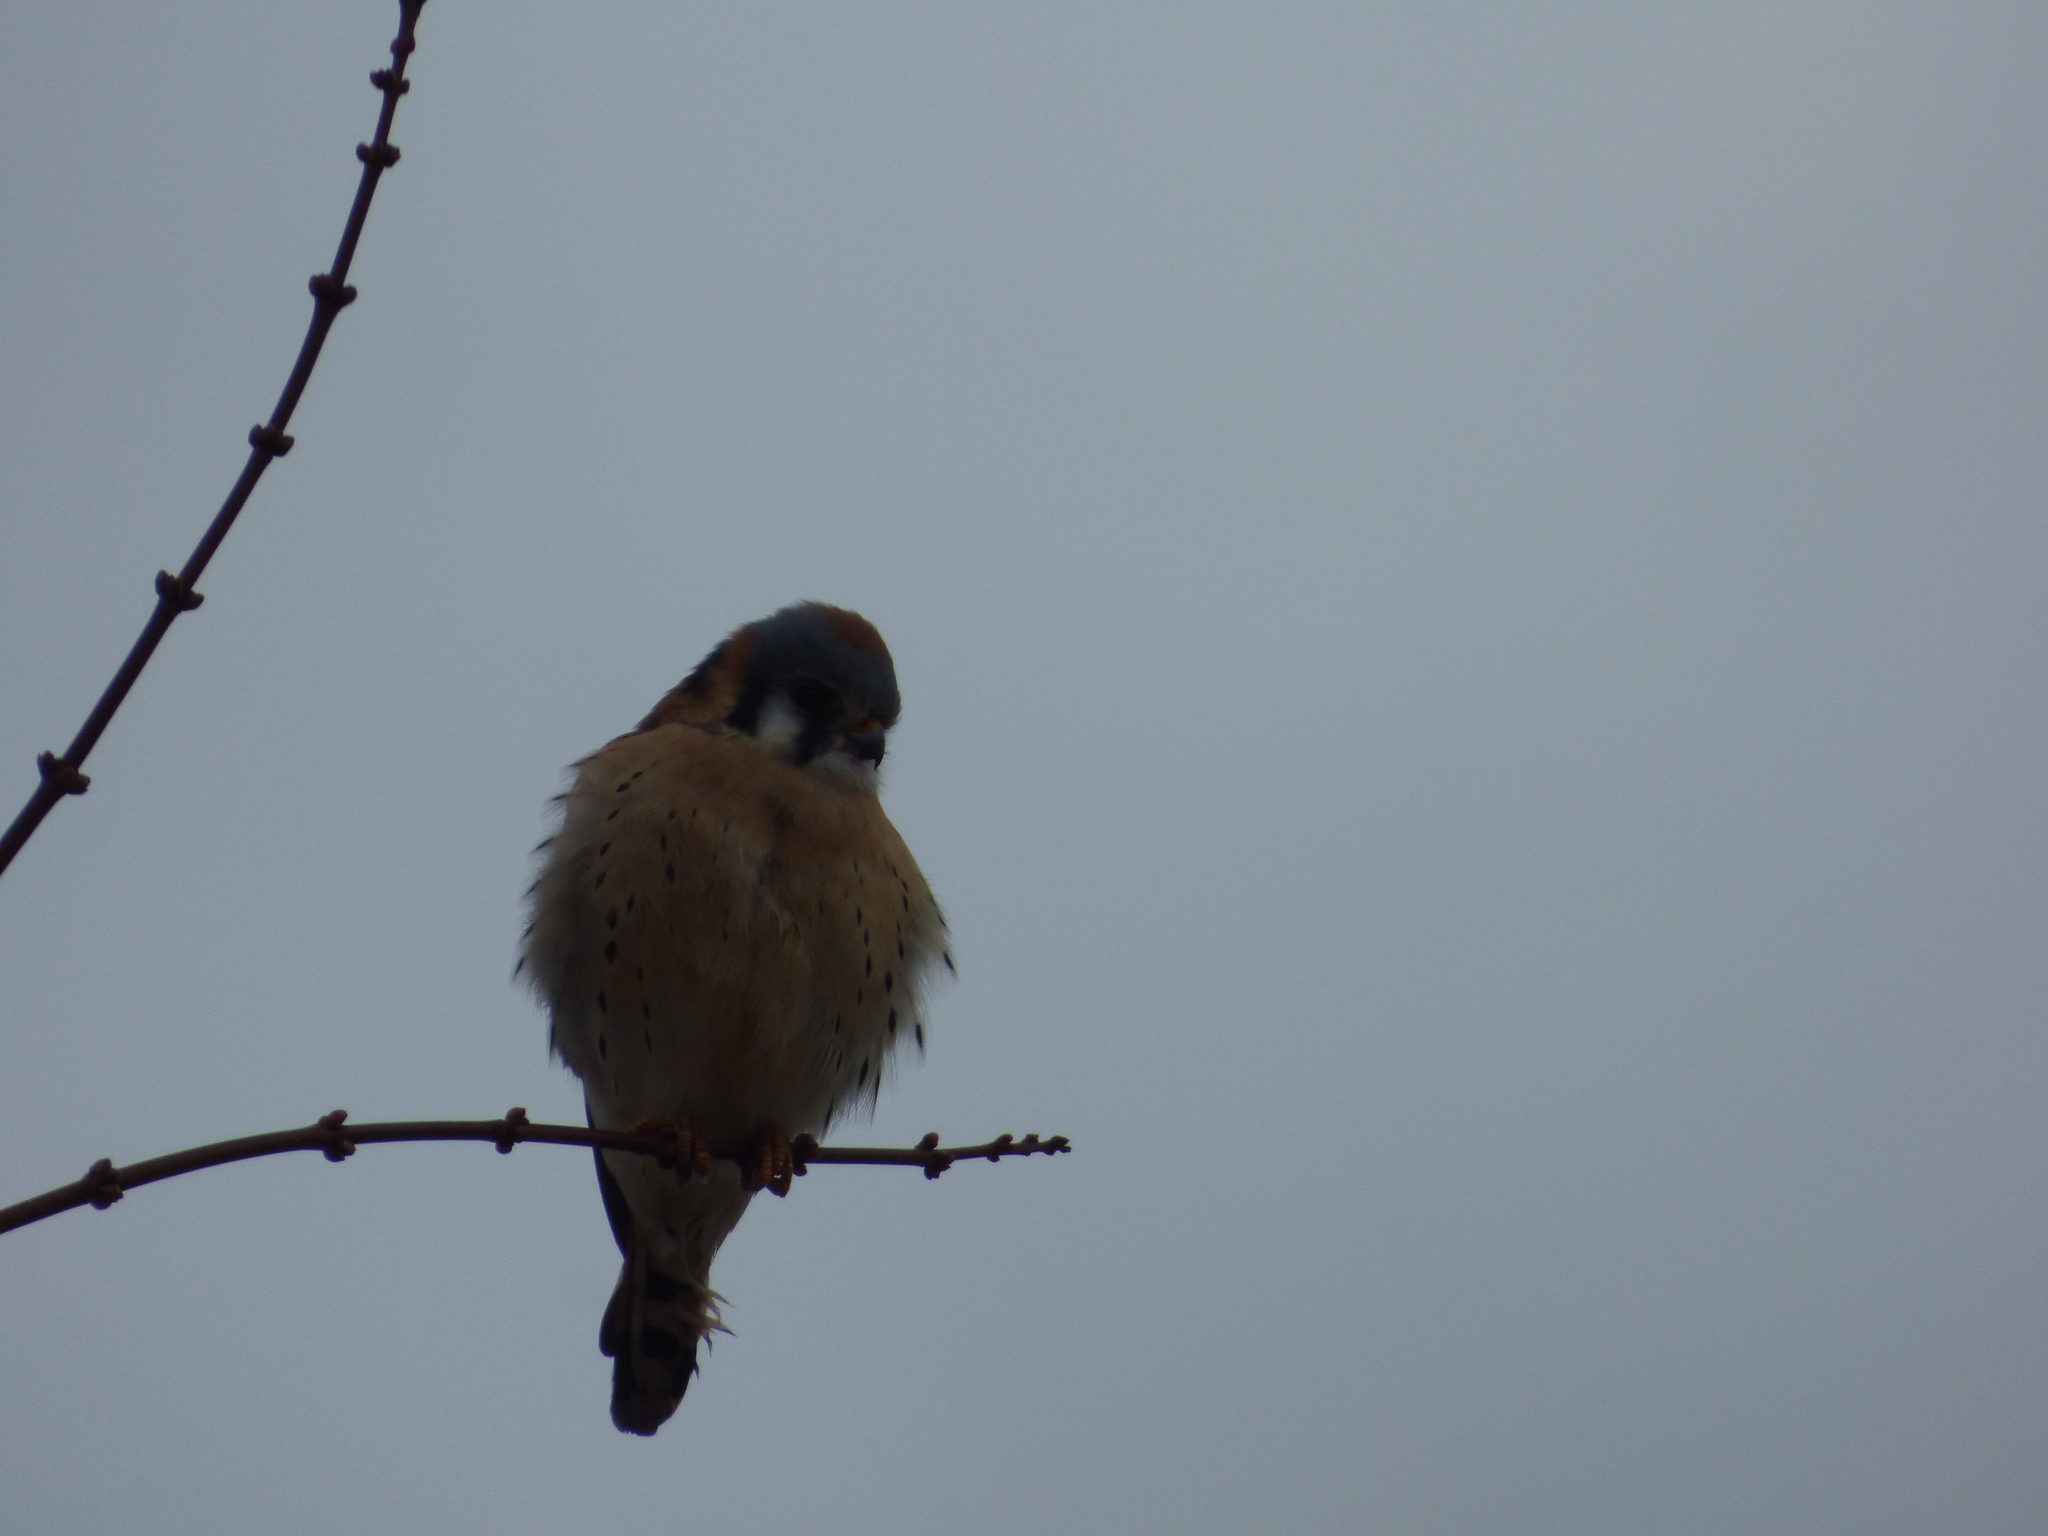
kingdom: Animalia
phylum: Chordata
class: Aves
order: Falconiformes
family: Falconidae
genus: Falco
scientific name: Falco sparverius
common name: American kestrel
